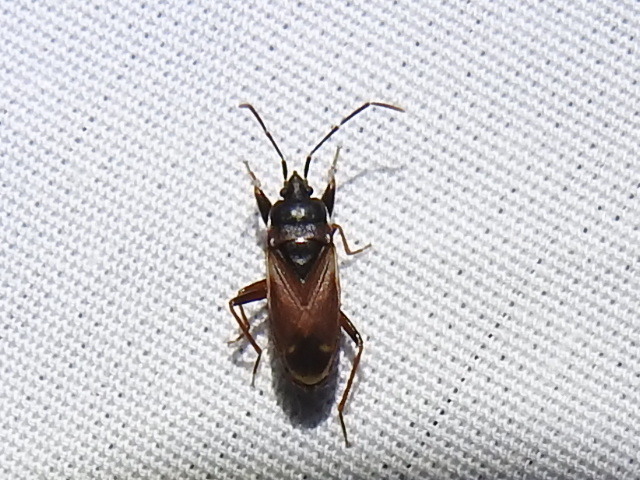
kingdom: Animalia
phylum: Arthropoda
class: Insecta
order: Hemiptera
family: Rhyparochromidae
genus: Eremocoris
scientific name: Eremocoris depressus
